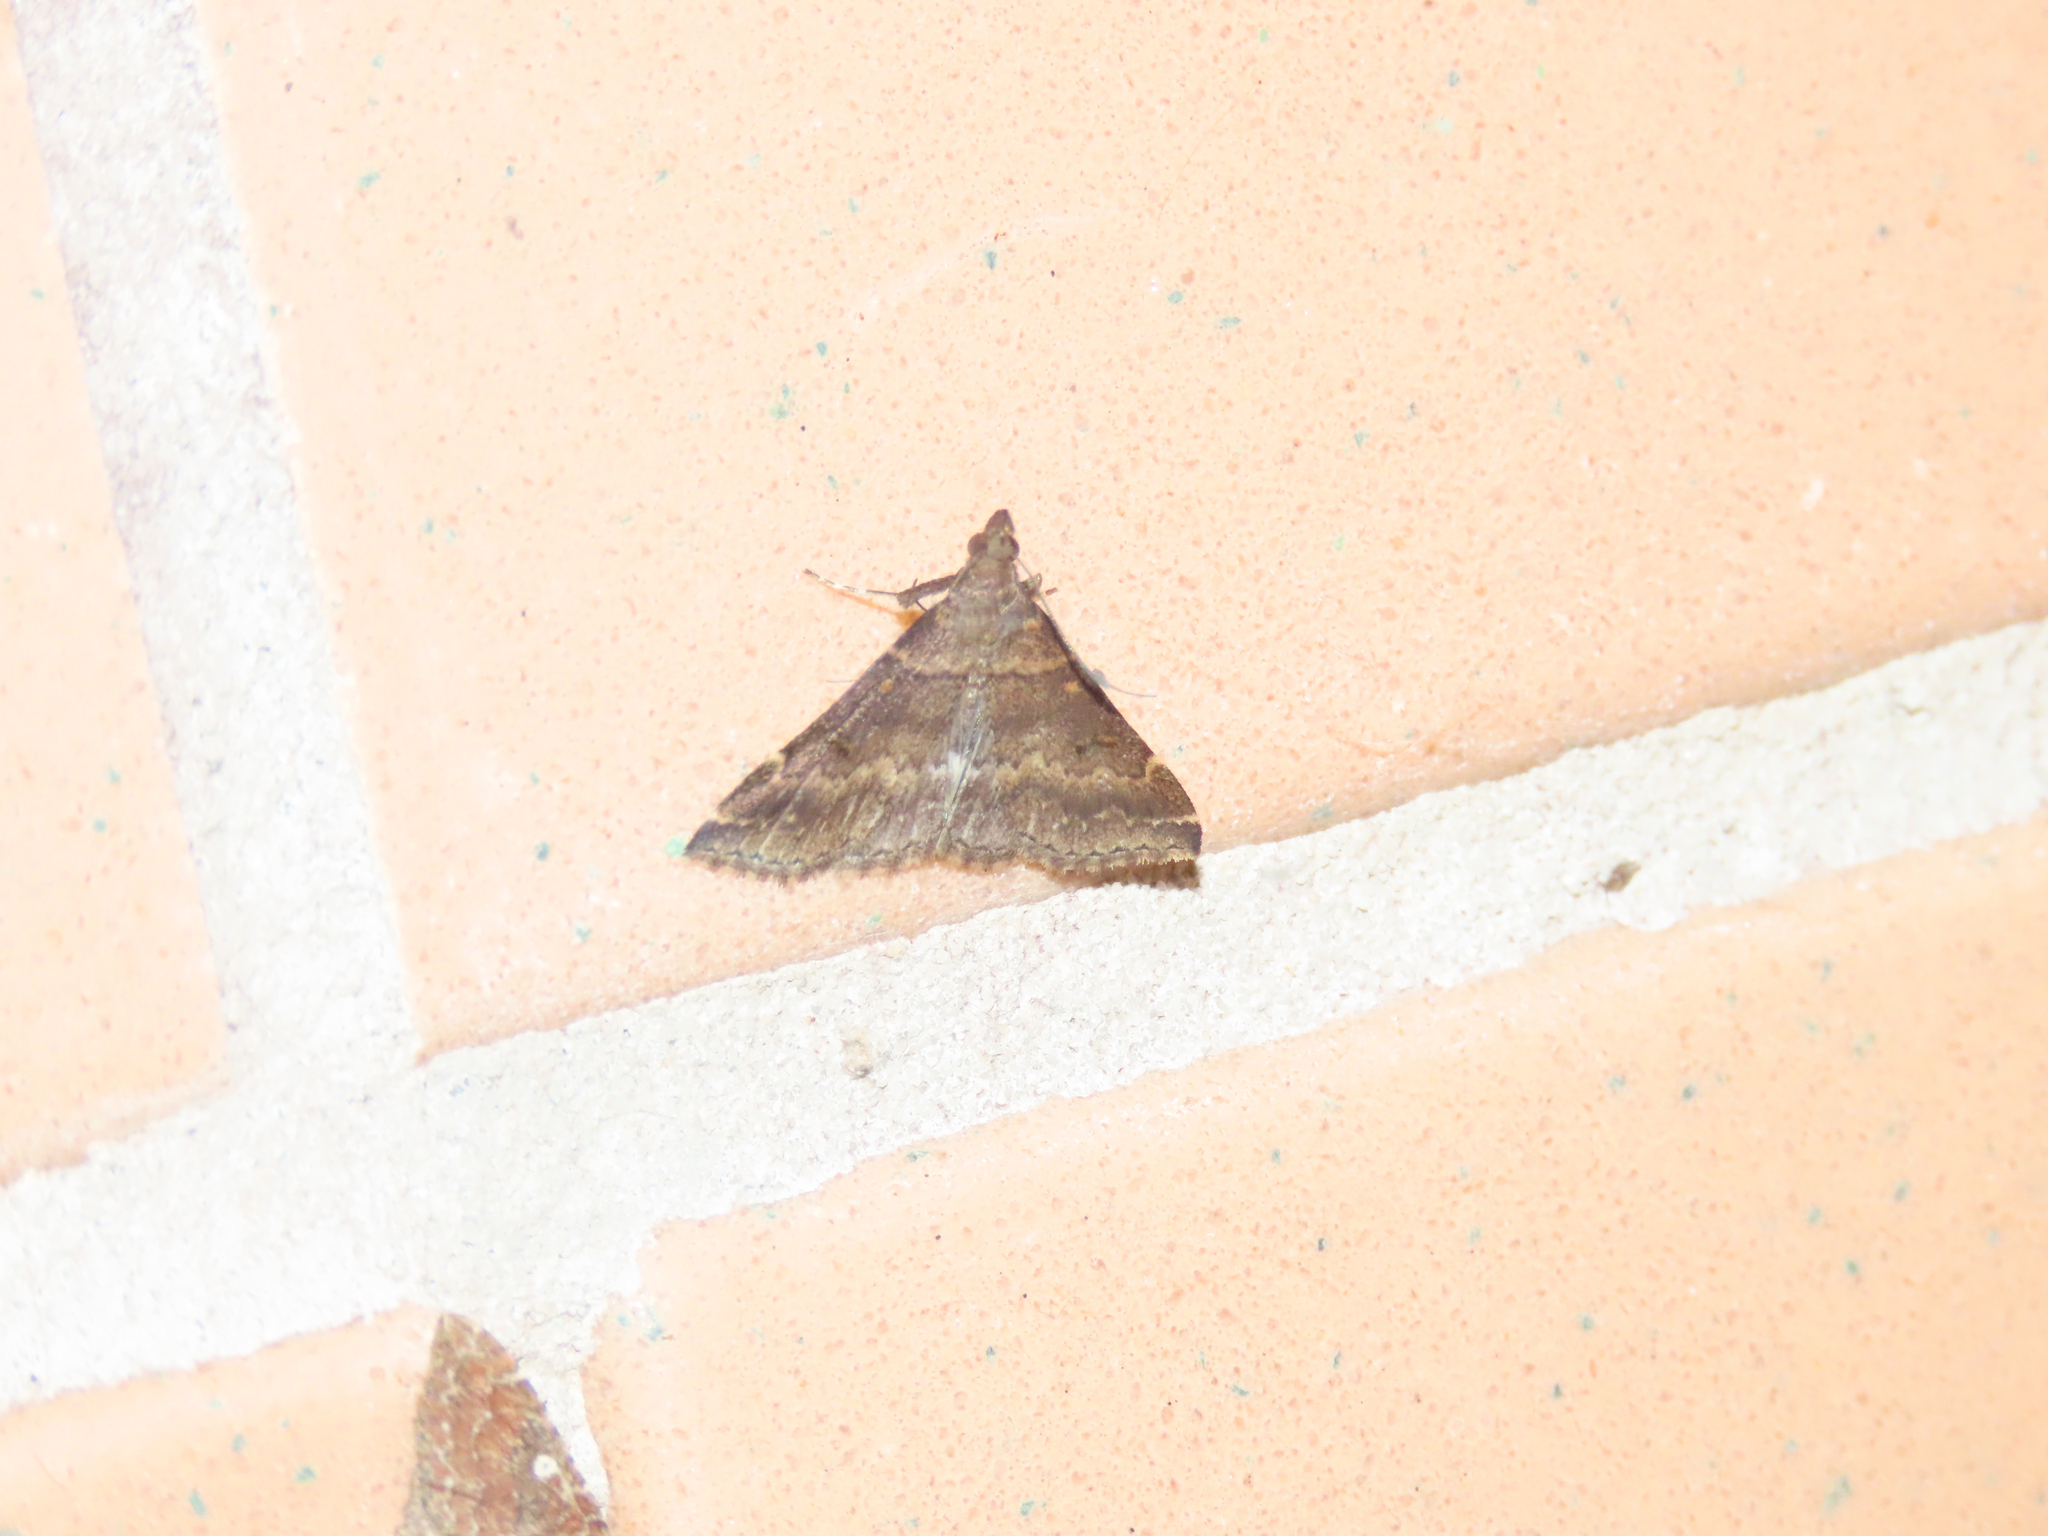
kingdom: Animalia
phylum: Arthropoda
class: Insecta
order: Lepidoptera
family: Erebidae
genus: Renia
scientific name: Renia factiosalis
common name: Sociable renia moth
